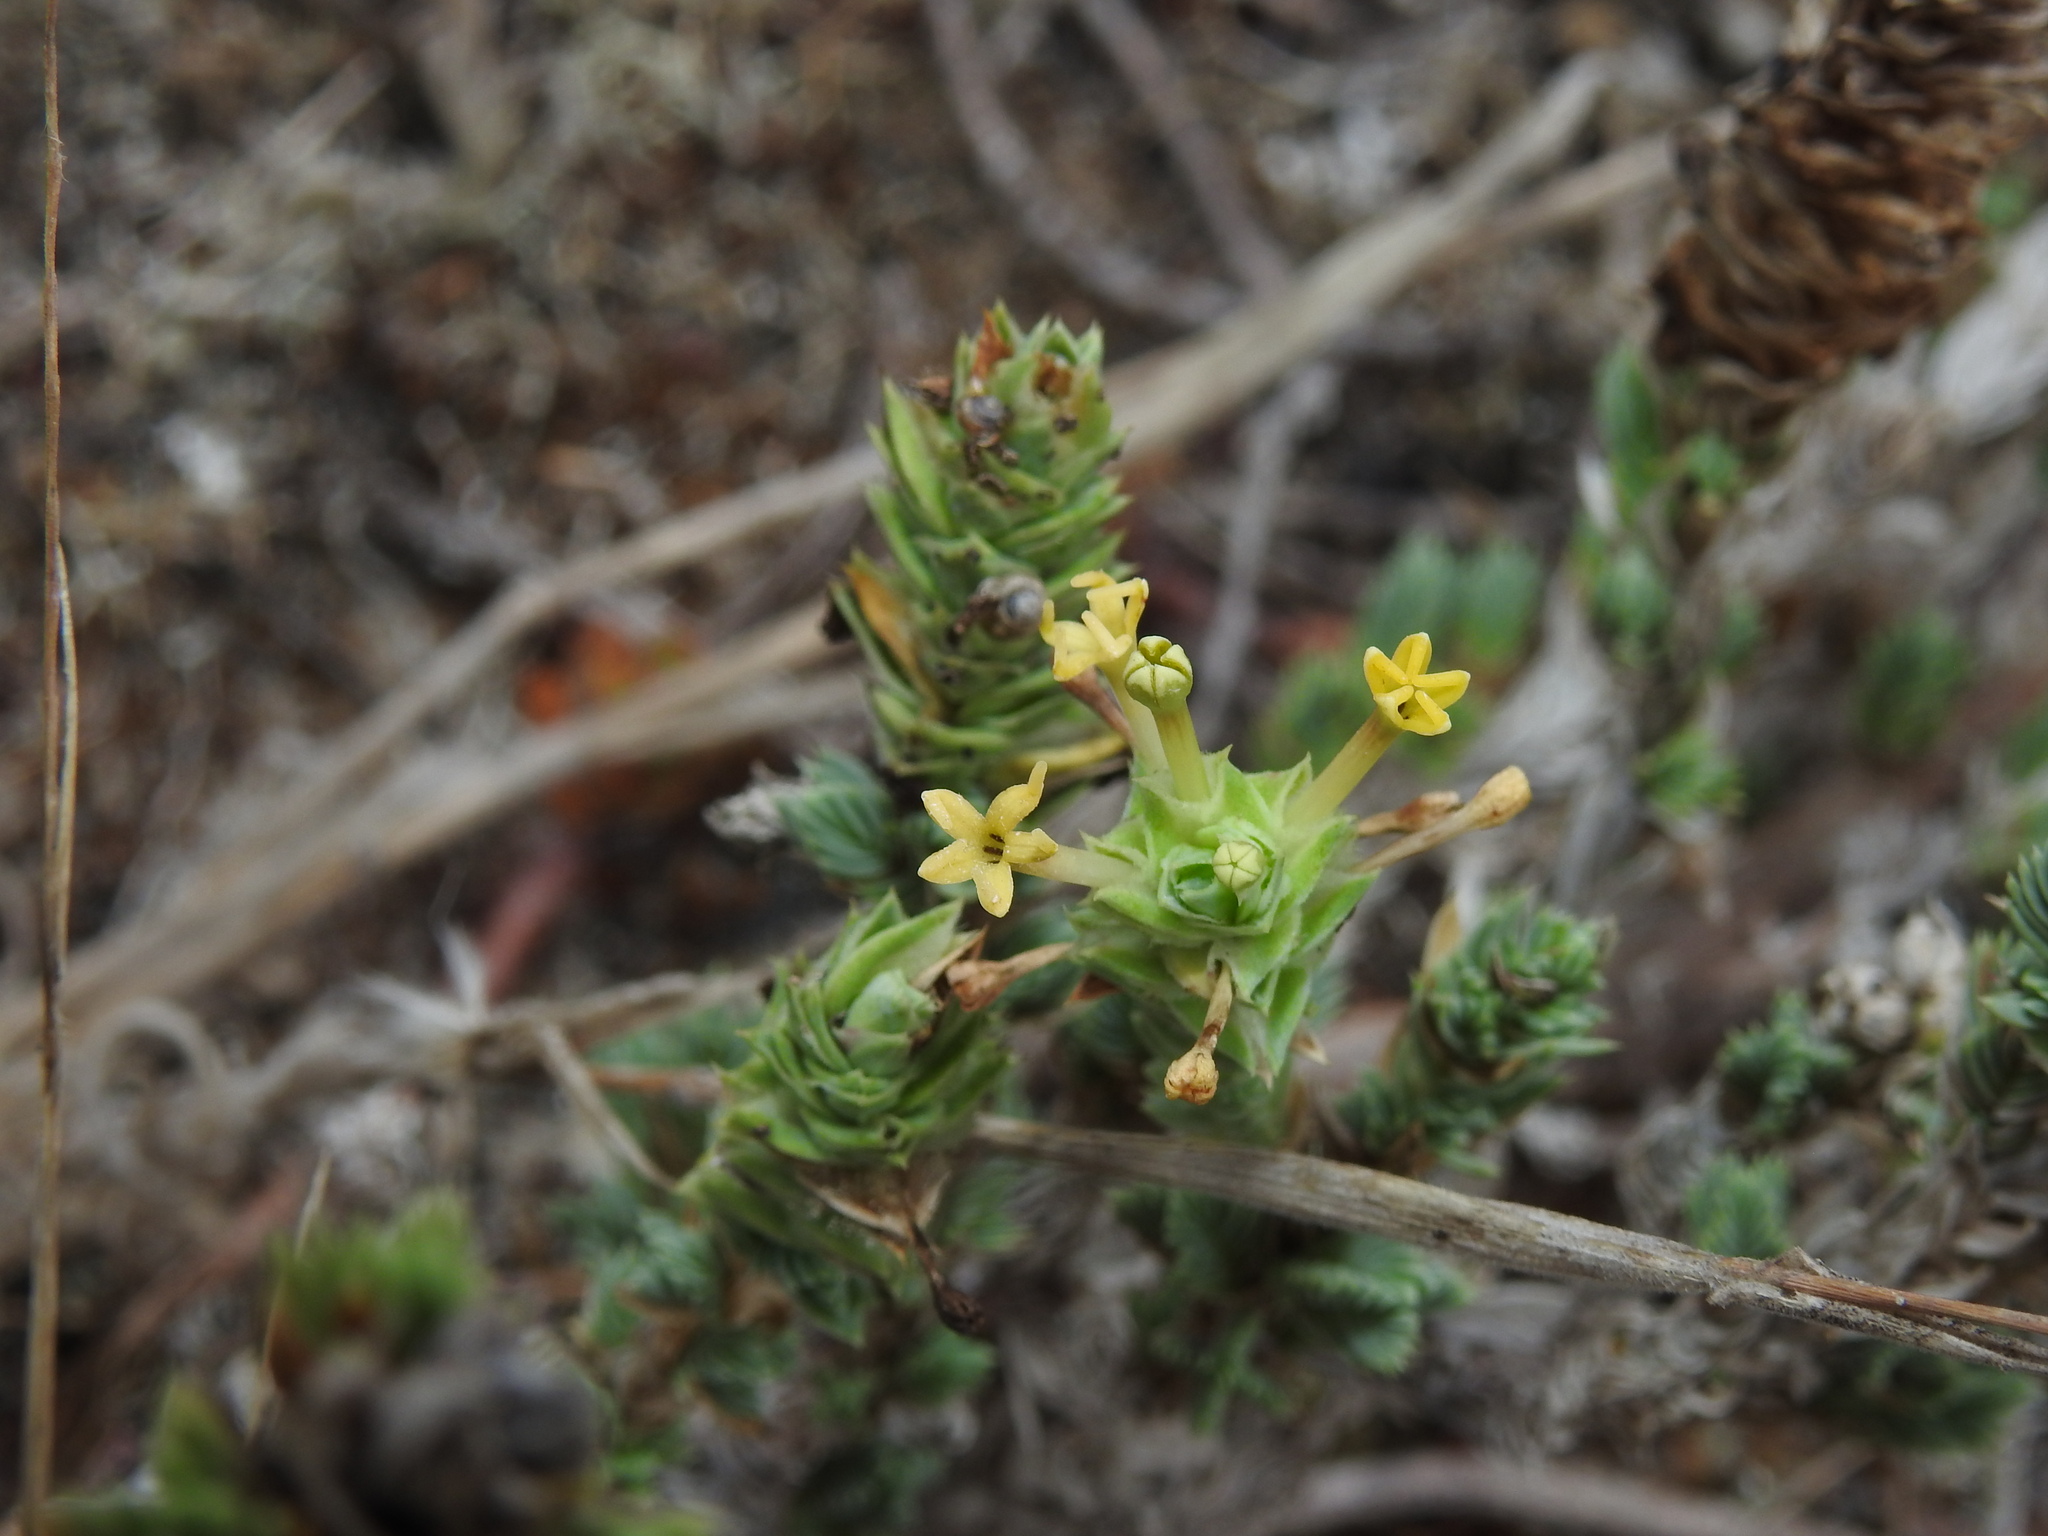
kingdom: Plantae
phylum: Tracheophyta
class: Magnoliopsida
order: Gentianales
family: Rubiaceae
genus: Crucianella
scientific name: Crucianella maritima
